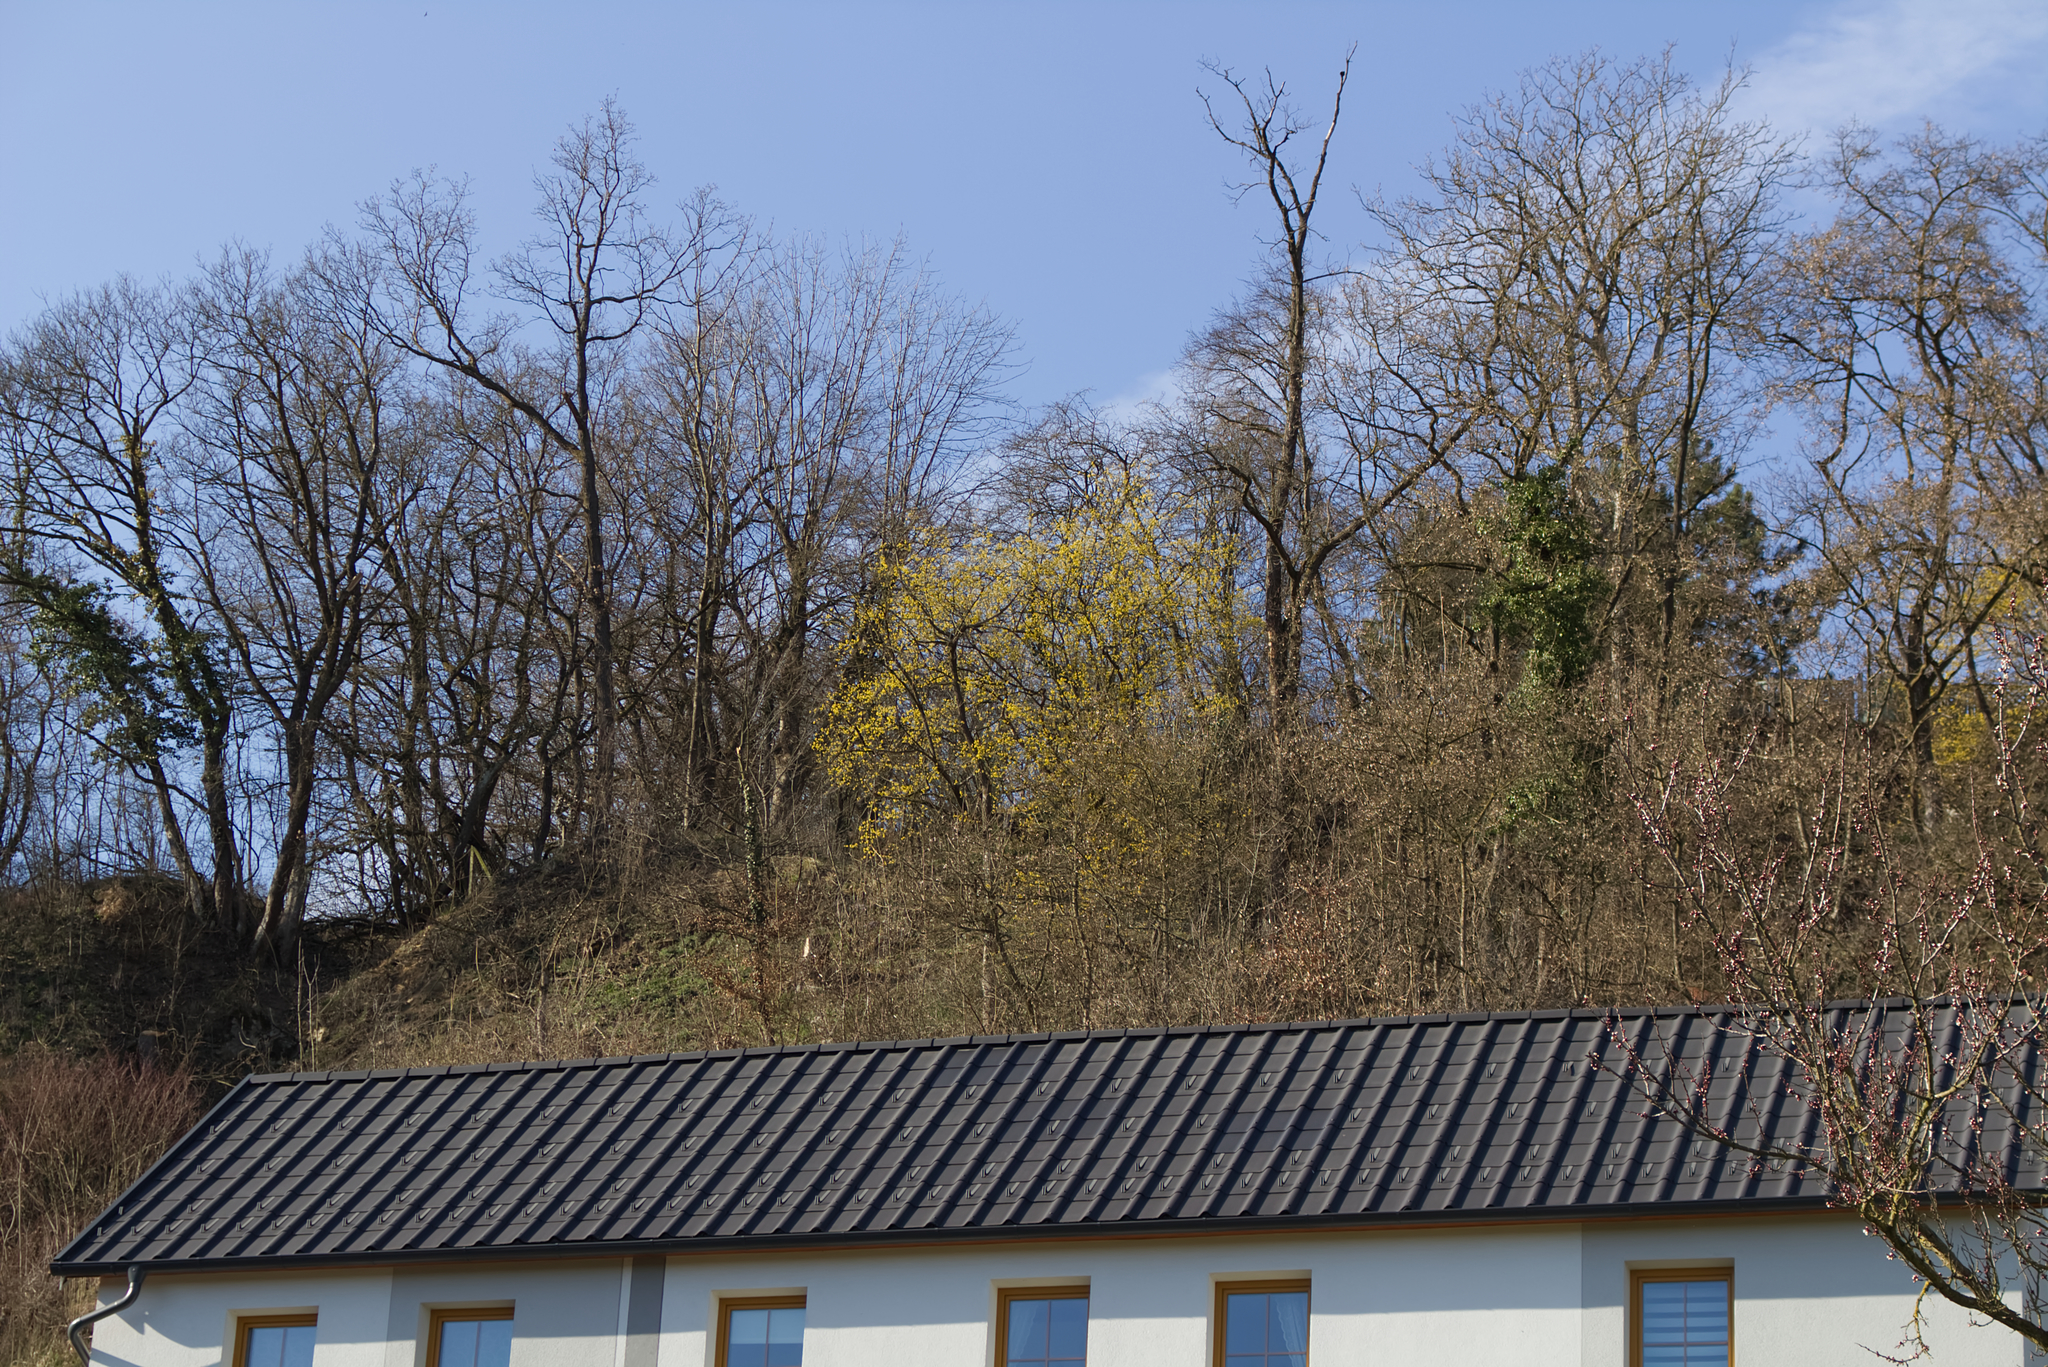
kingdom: Plantae
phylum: Tracheophyta
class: Magnoliopsida
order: Cornales
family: Cornaceae
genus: Cornus
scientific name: Cornus mas
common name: Cornelian-cherry
